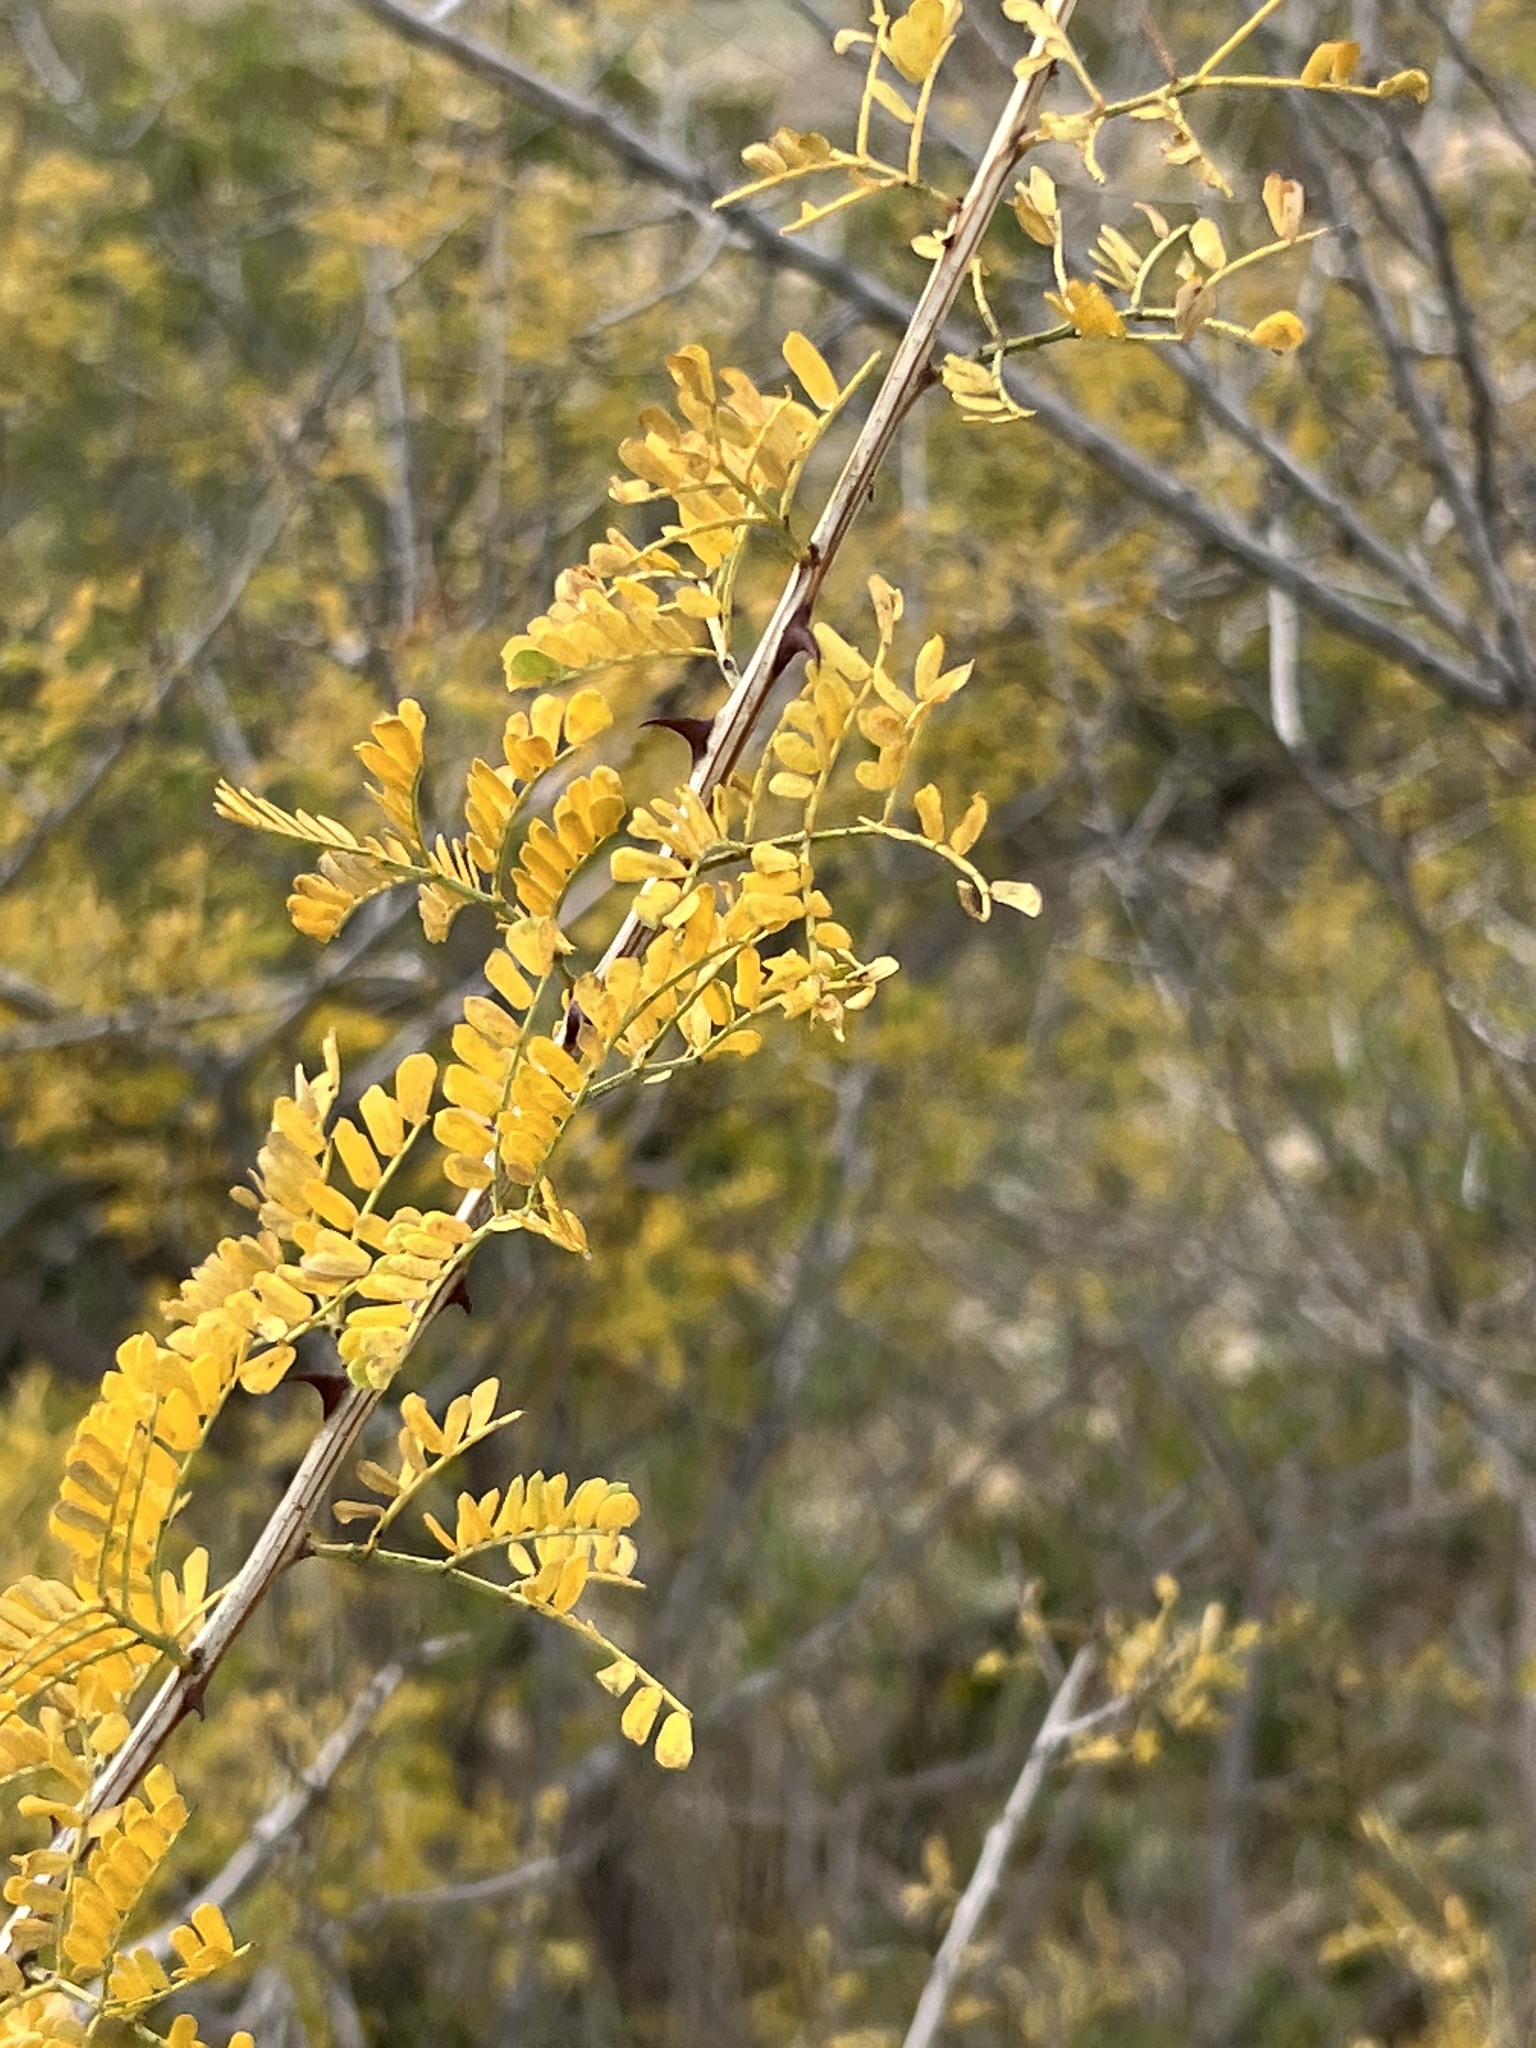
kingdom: Plantae
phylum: Tracheophyta
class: Magnoliopsida
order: Fabales
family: Fabaceae
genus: Senegalia
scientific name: Senegalia greggii
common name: Texas-mimosa
